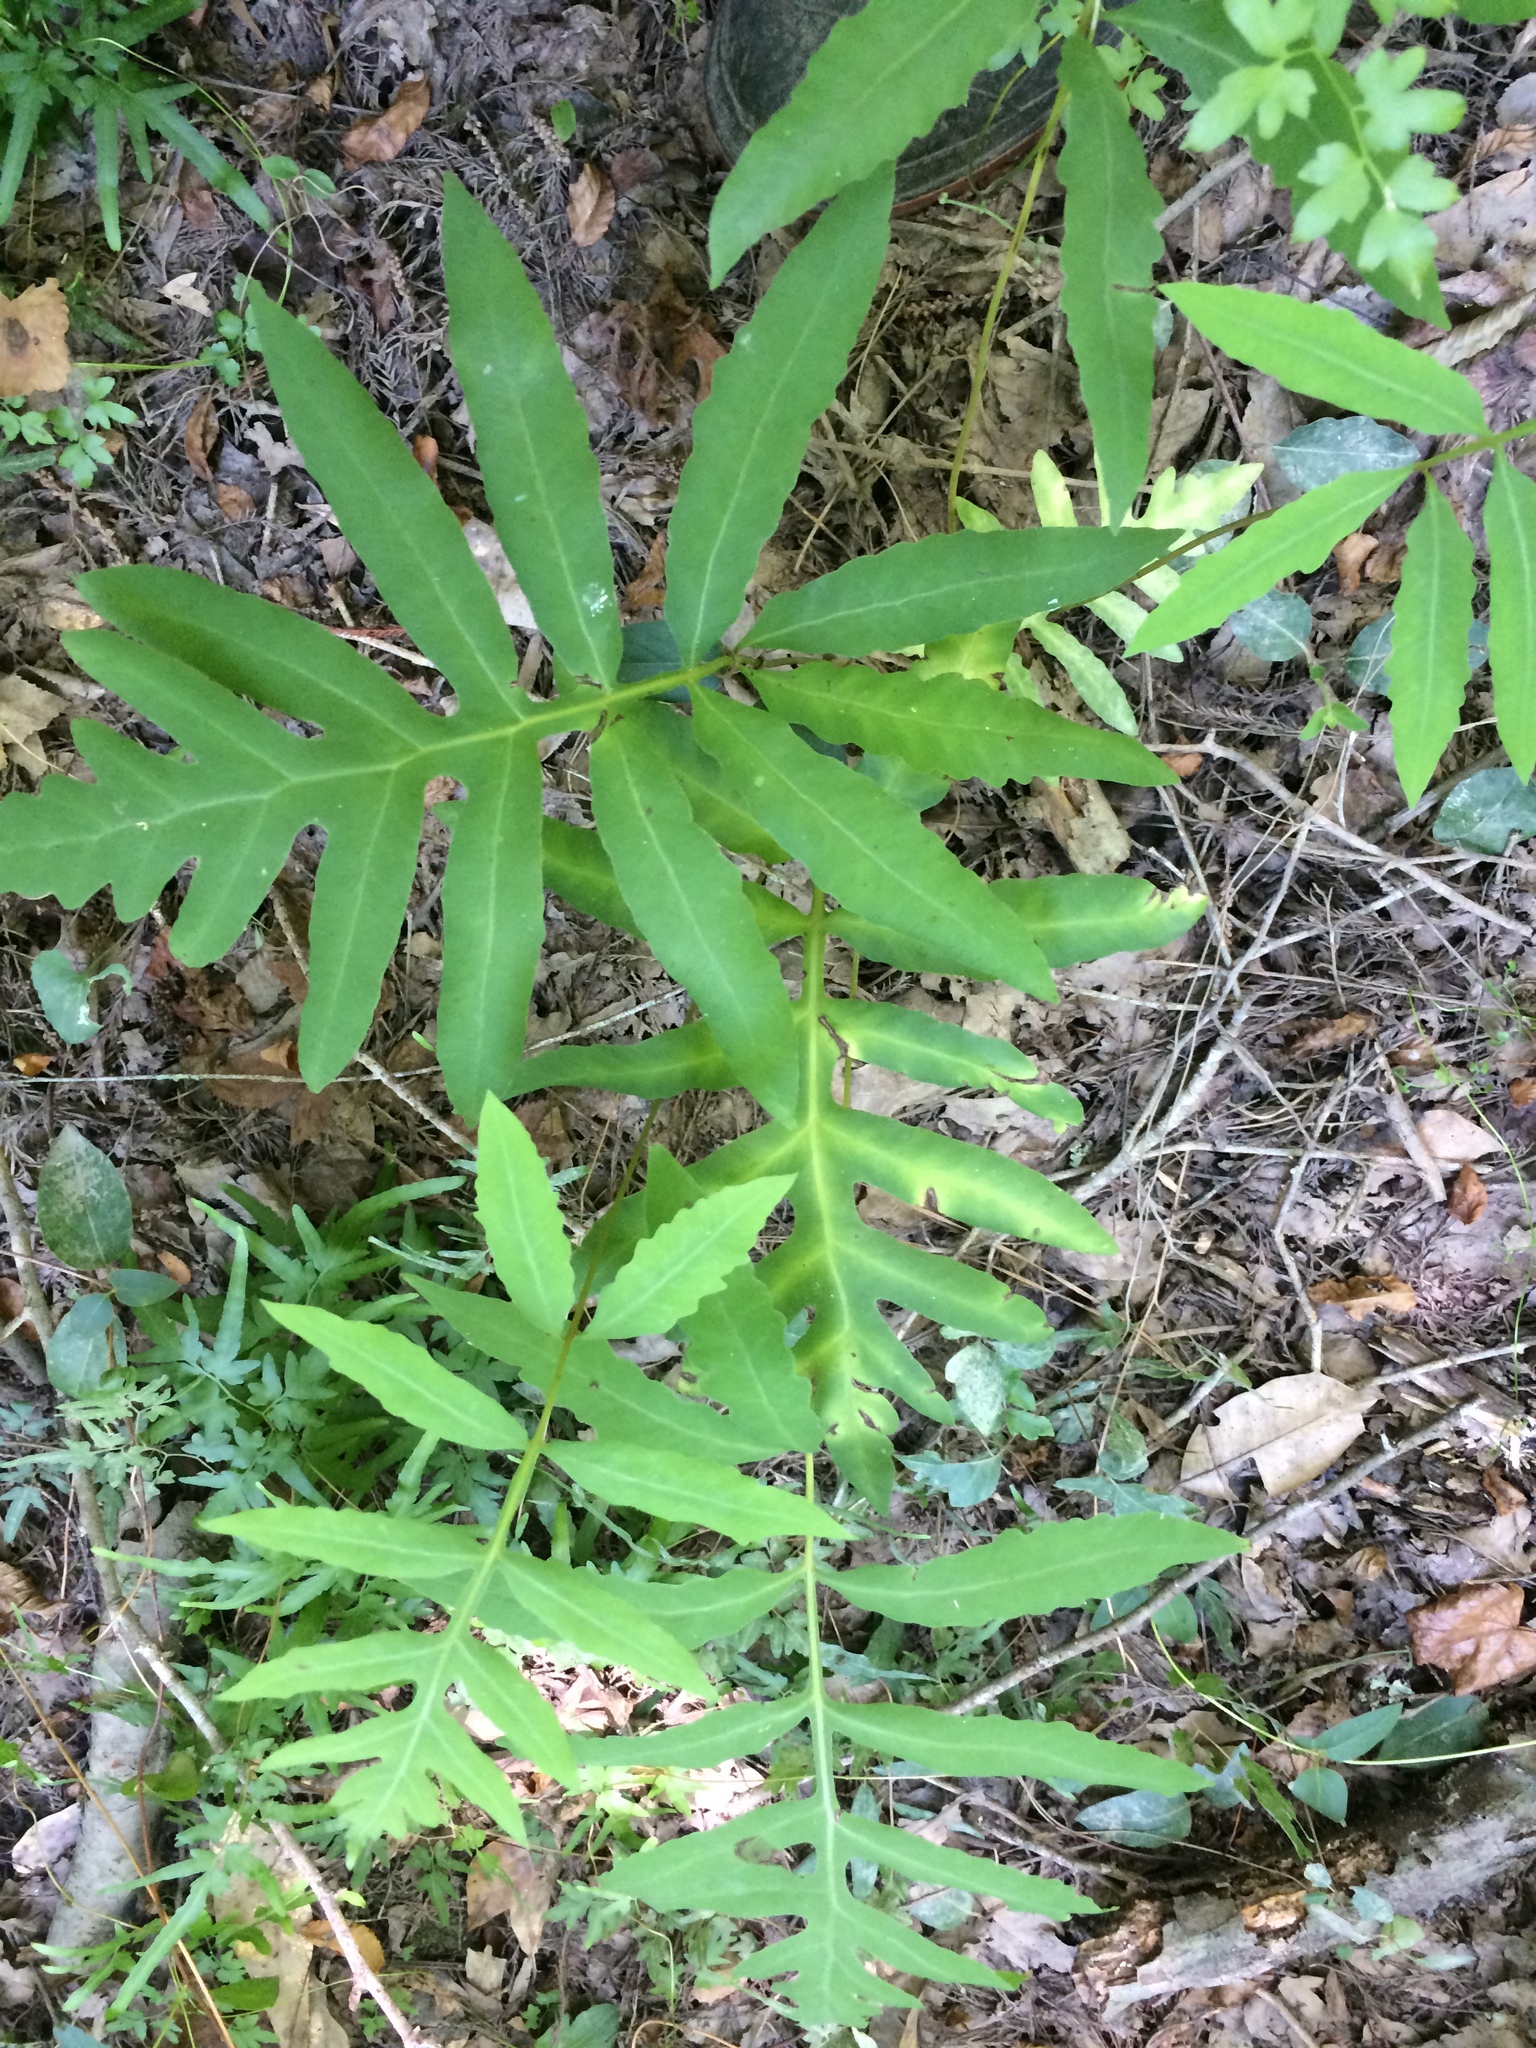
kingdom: Plantae
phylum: Tracheophyta
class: Polypodiopsida
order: Polypodiales
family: Onocleaceae
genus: Onoclea
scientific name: Onoclea sensibilis
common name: Sensitive fern
